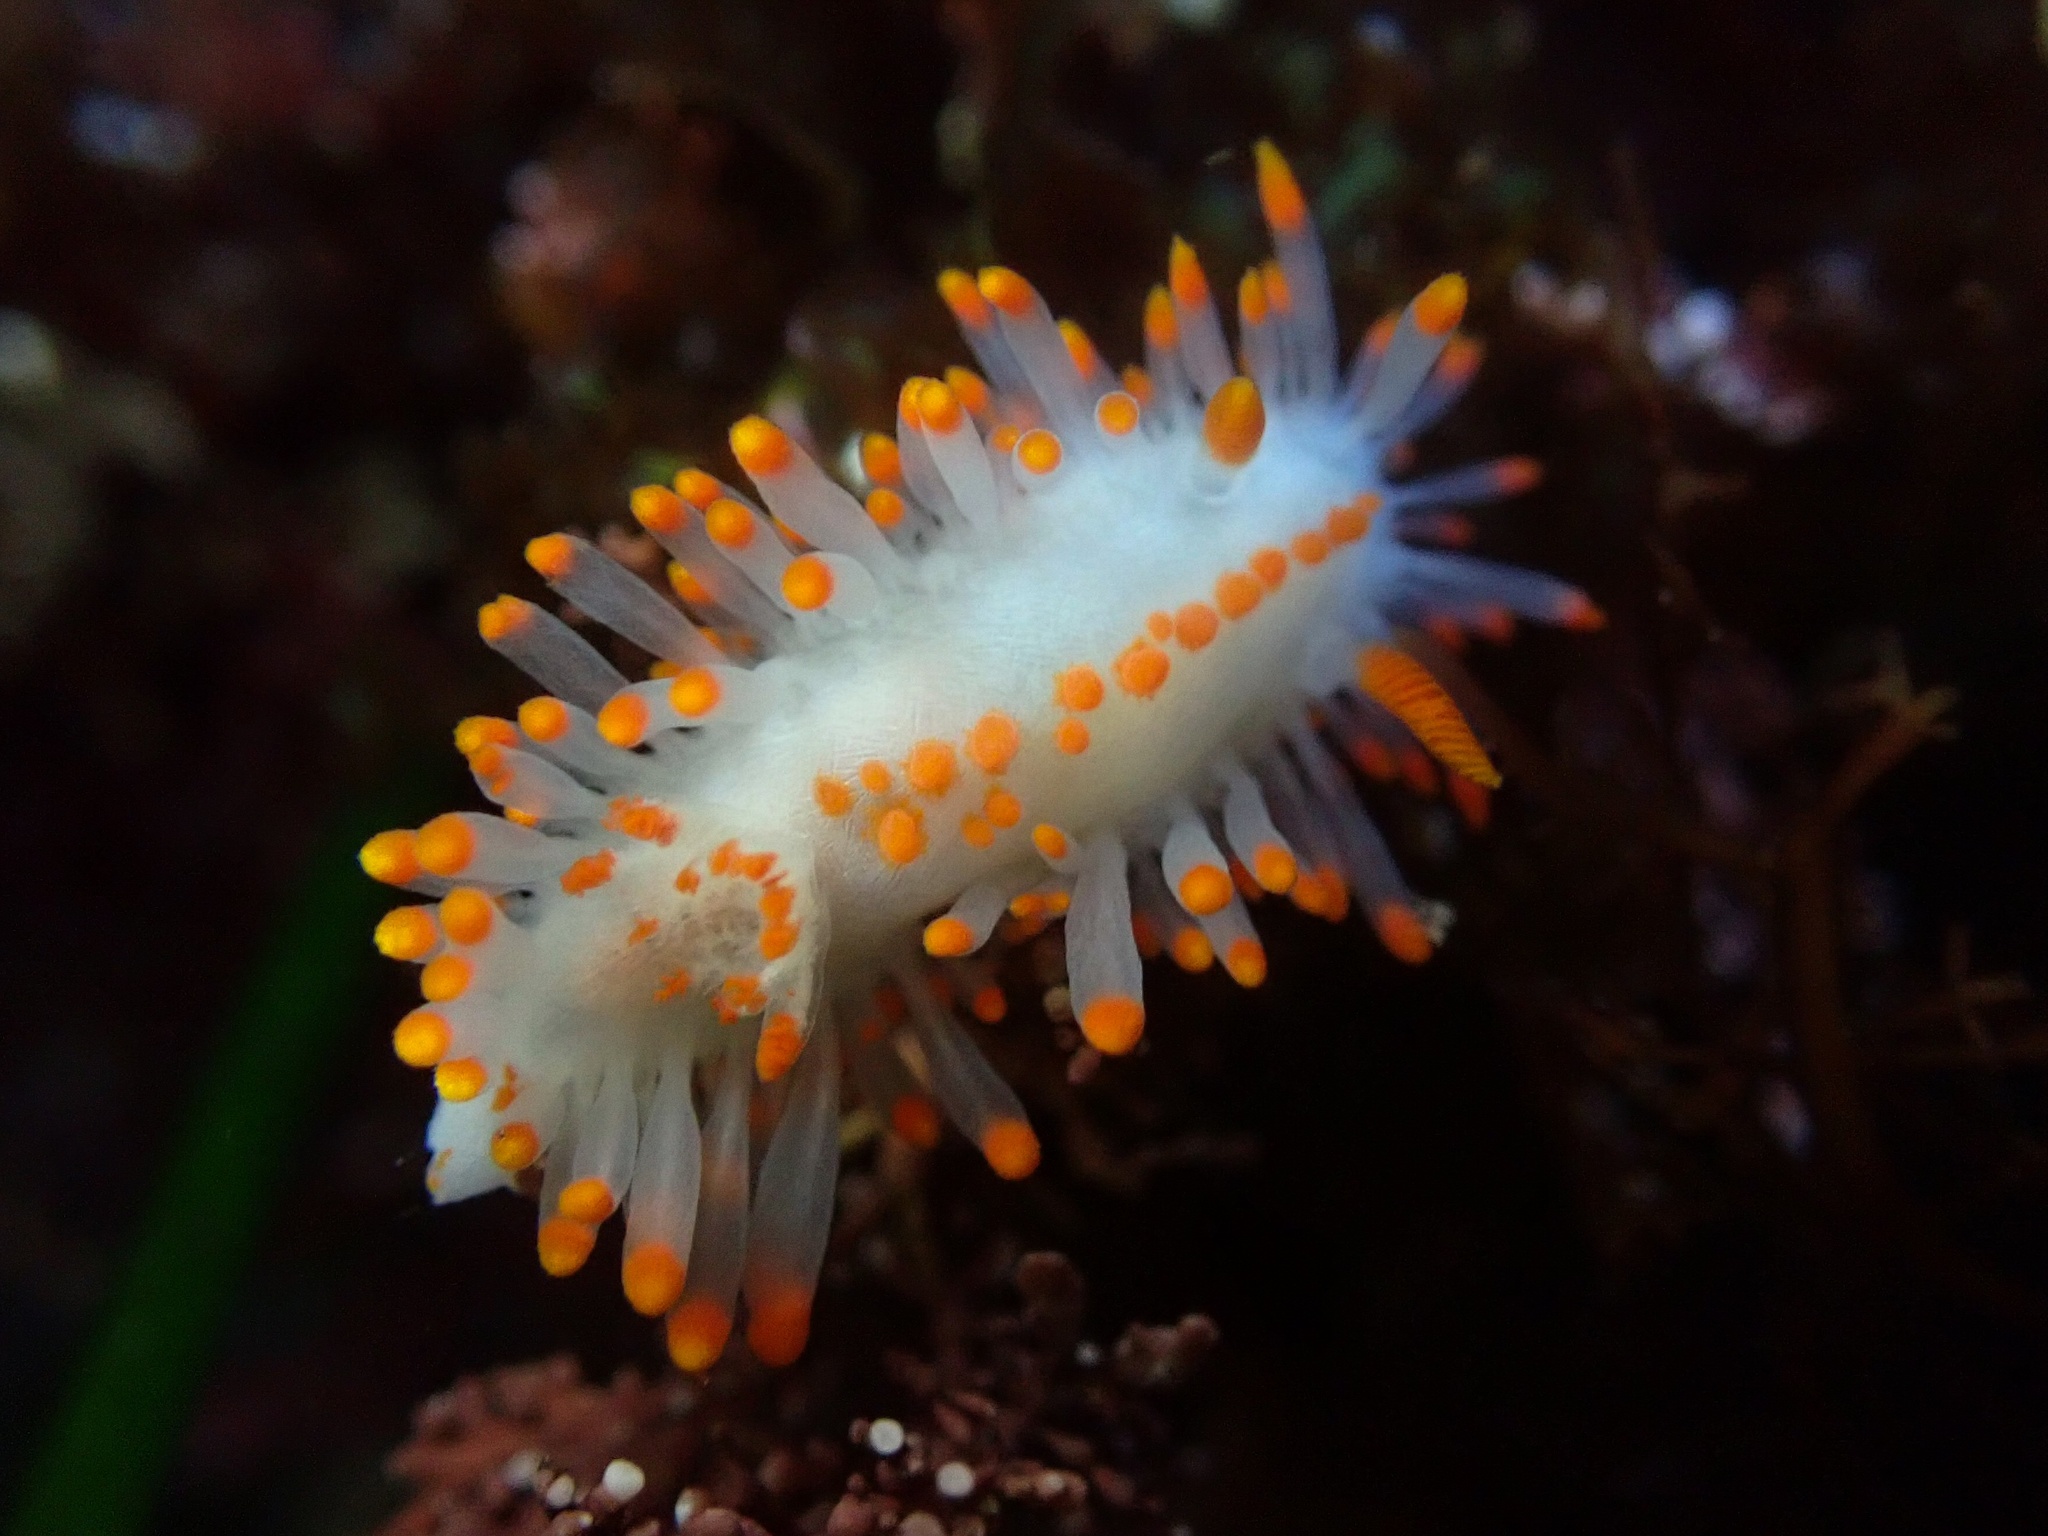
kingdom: Animalia
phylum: Mollusca
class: Gastropoda
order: Nudibranchia
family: Polyceridae
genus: Limacia
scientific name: Limacia mcdonaldi
